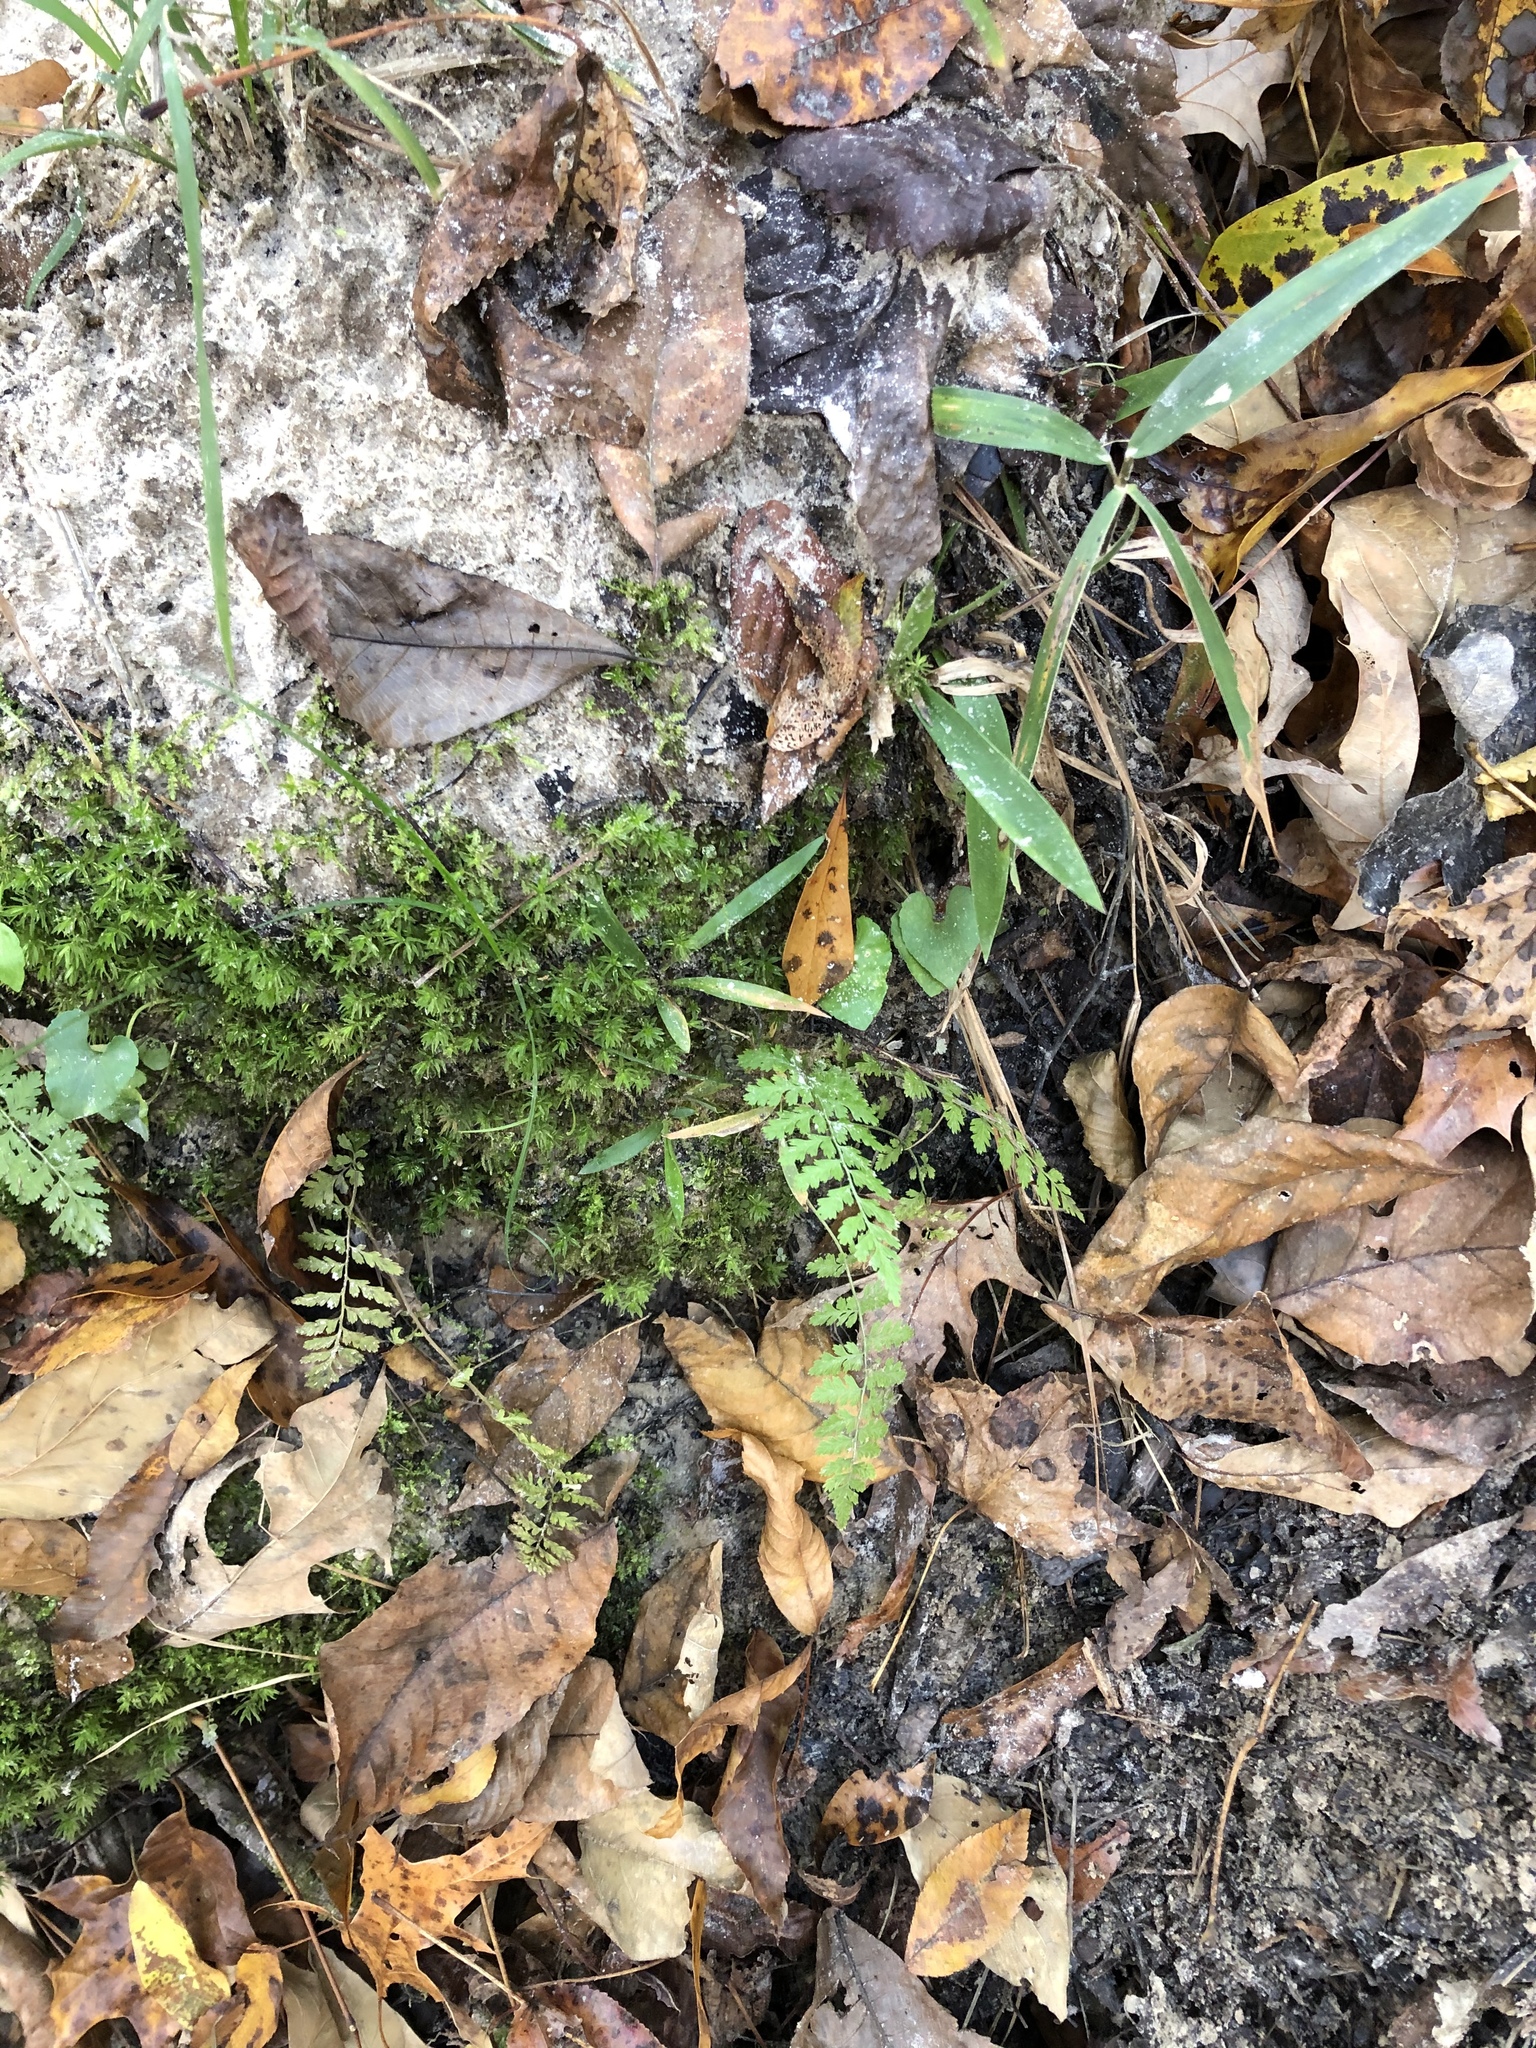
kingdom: Plantae
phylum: Tracheophyta
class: Polypodiopsida
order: Polypodiales
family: Athyriaceae
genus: Athyrium
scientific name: Athyrium asplenioides
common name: Southern lady fern
